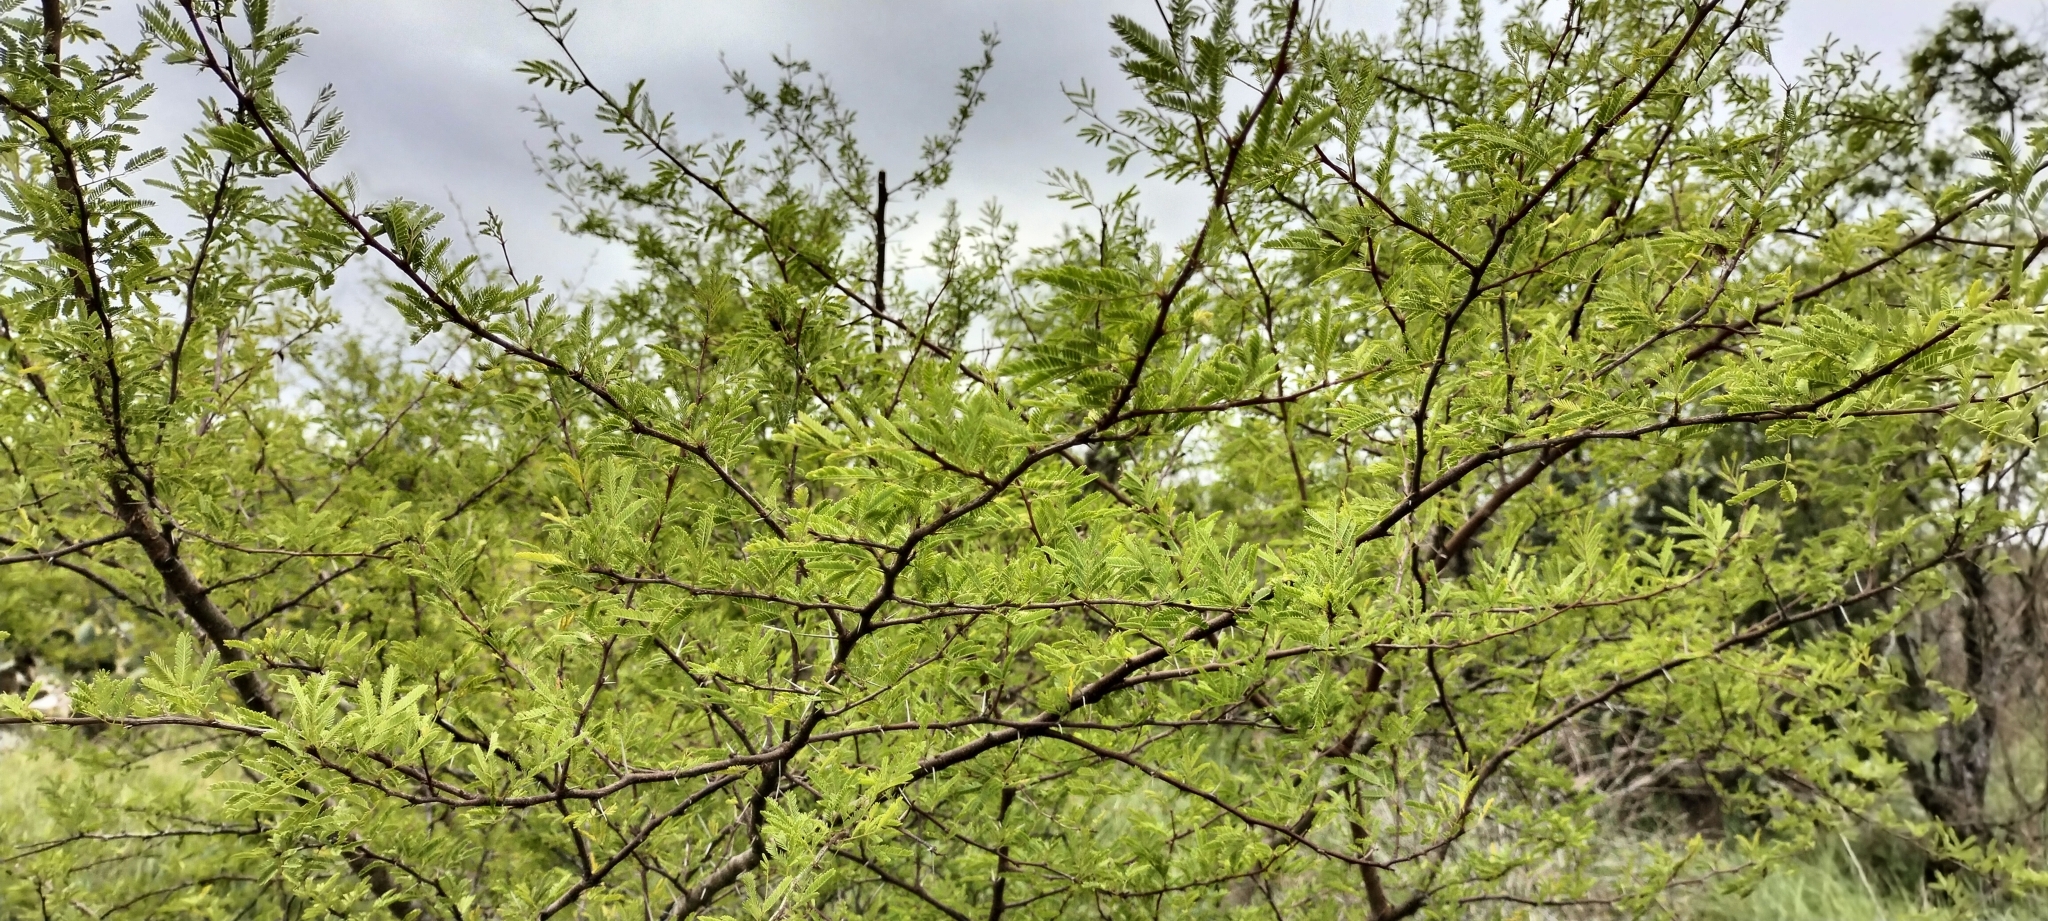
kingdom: Plantae
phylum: Tracheophyta
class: Magnoliopsida
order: Fabales
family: Fabaceae
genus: Vachellia
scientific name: Vachellia farnesiana
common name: Sweet acacia
